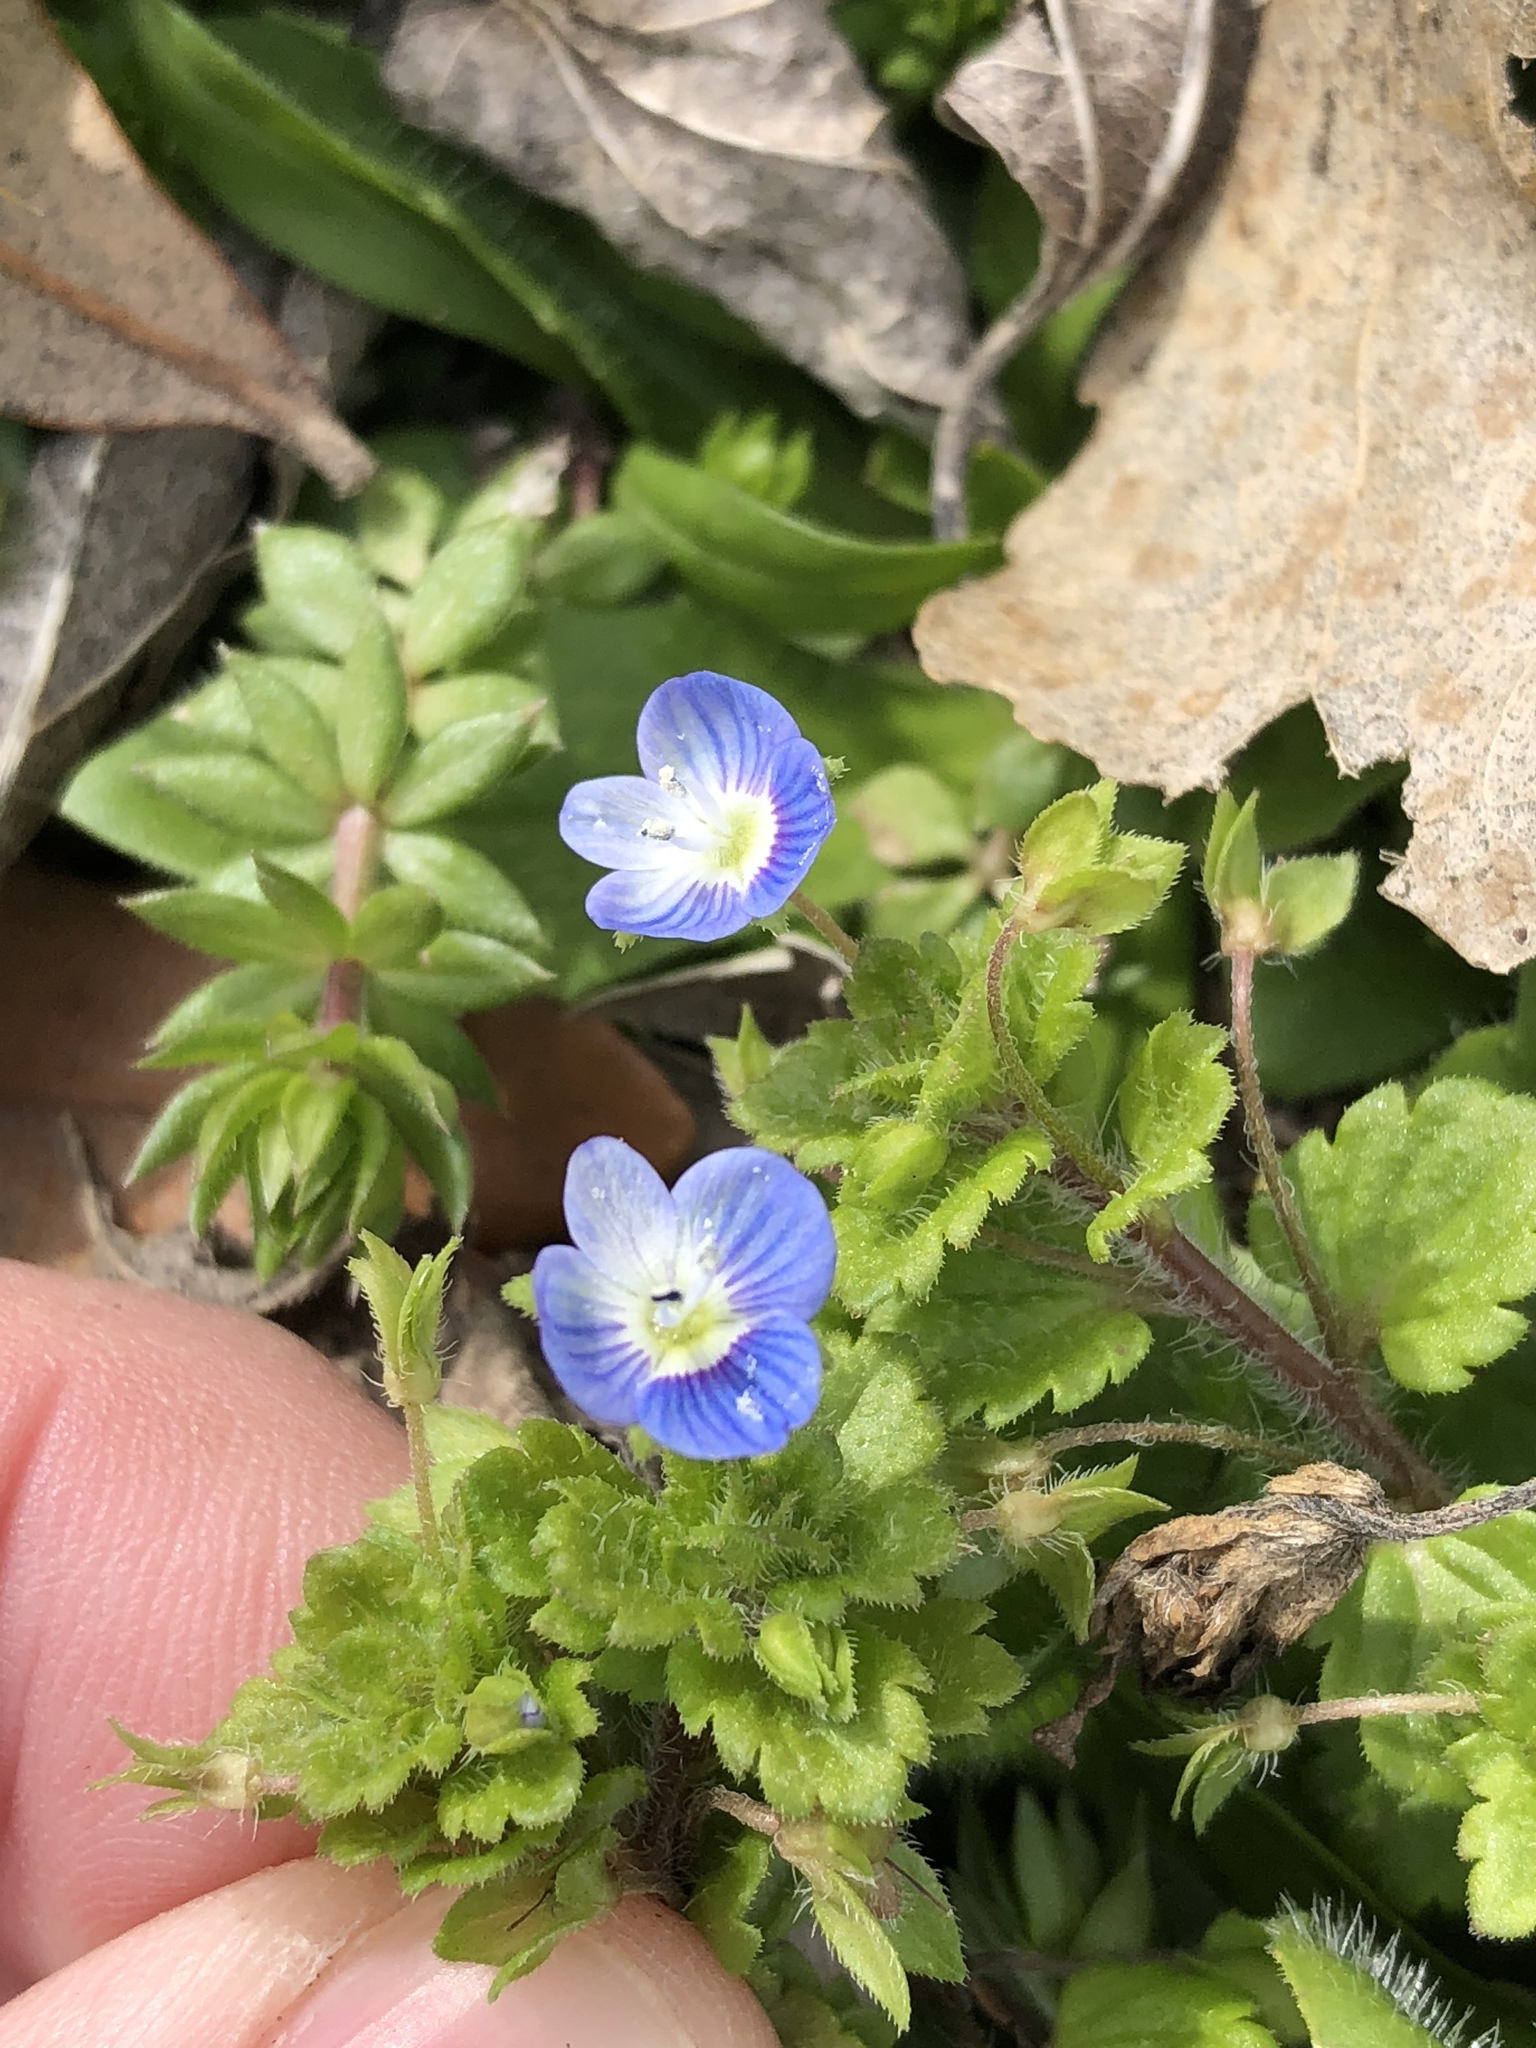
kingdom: Plantae
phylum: Tracheophyta
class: Magnoliopsida
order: Lamiales
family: Plantaginaceae
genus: Veronica
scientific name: Veronica persica
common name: Common field-speedwell
